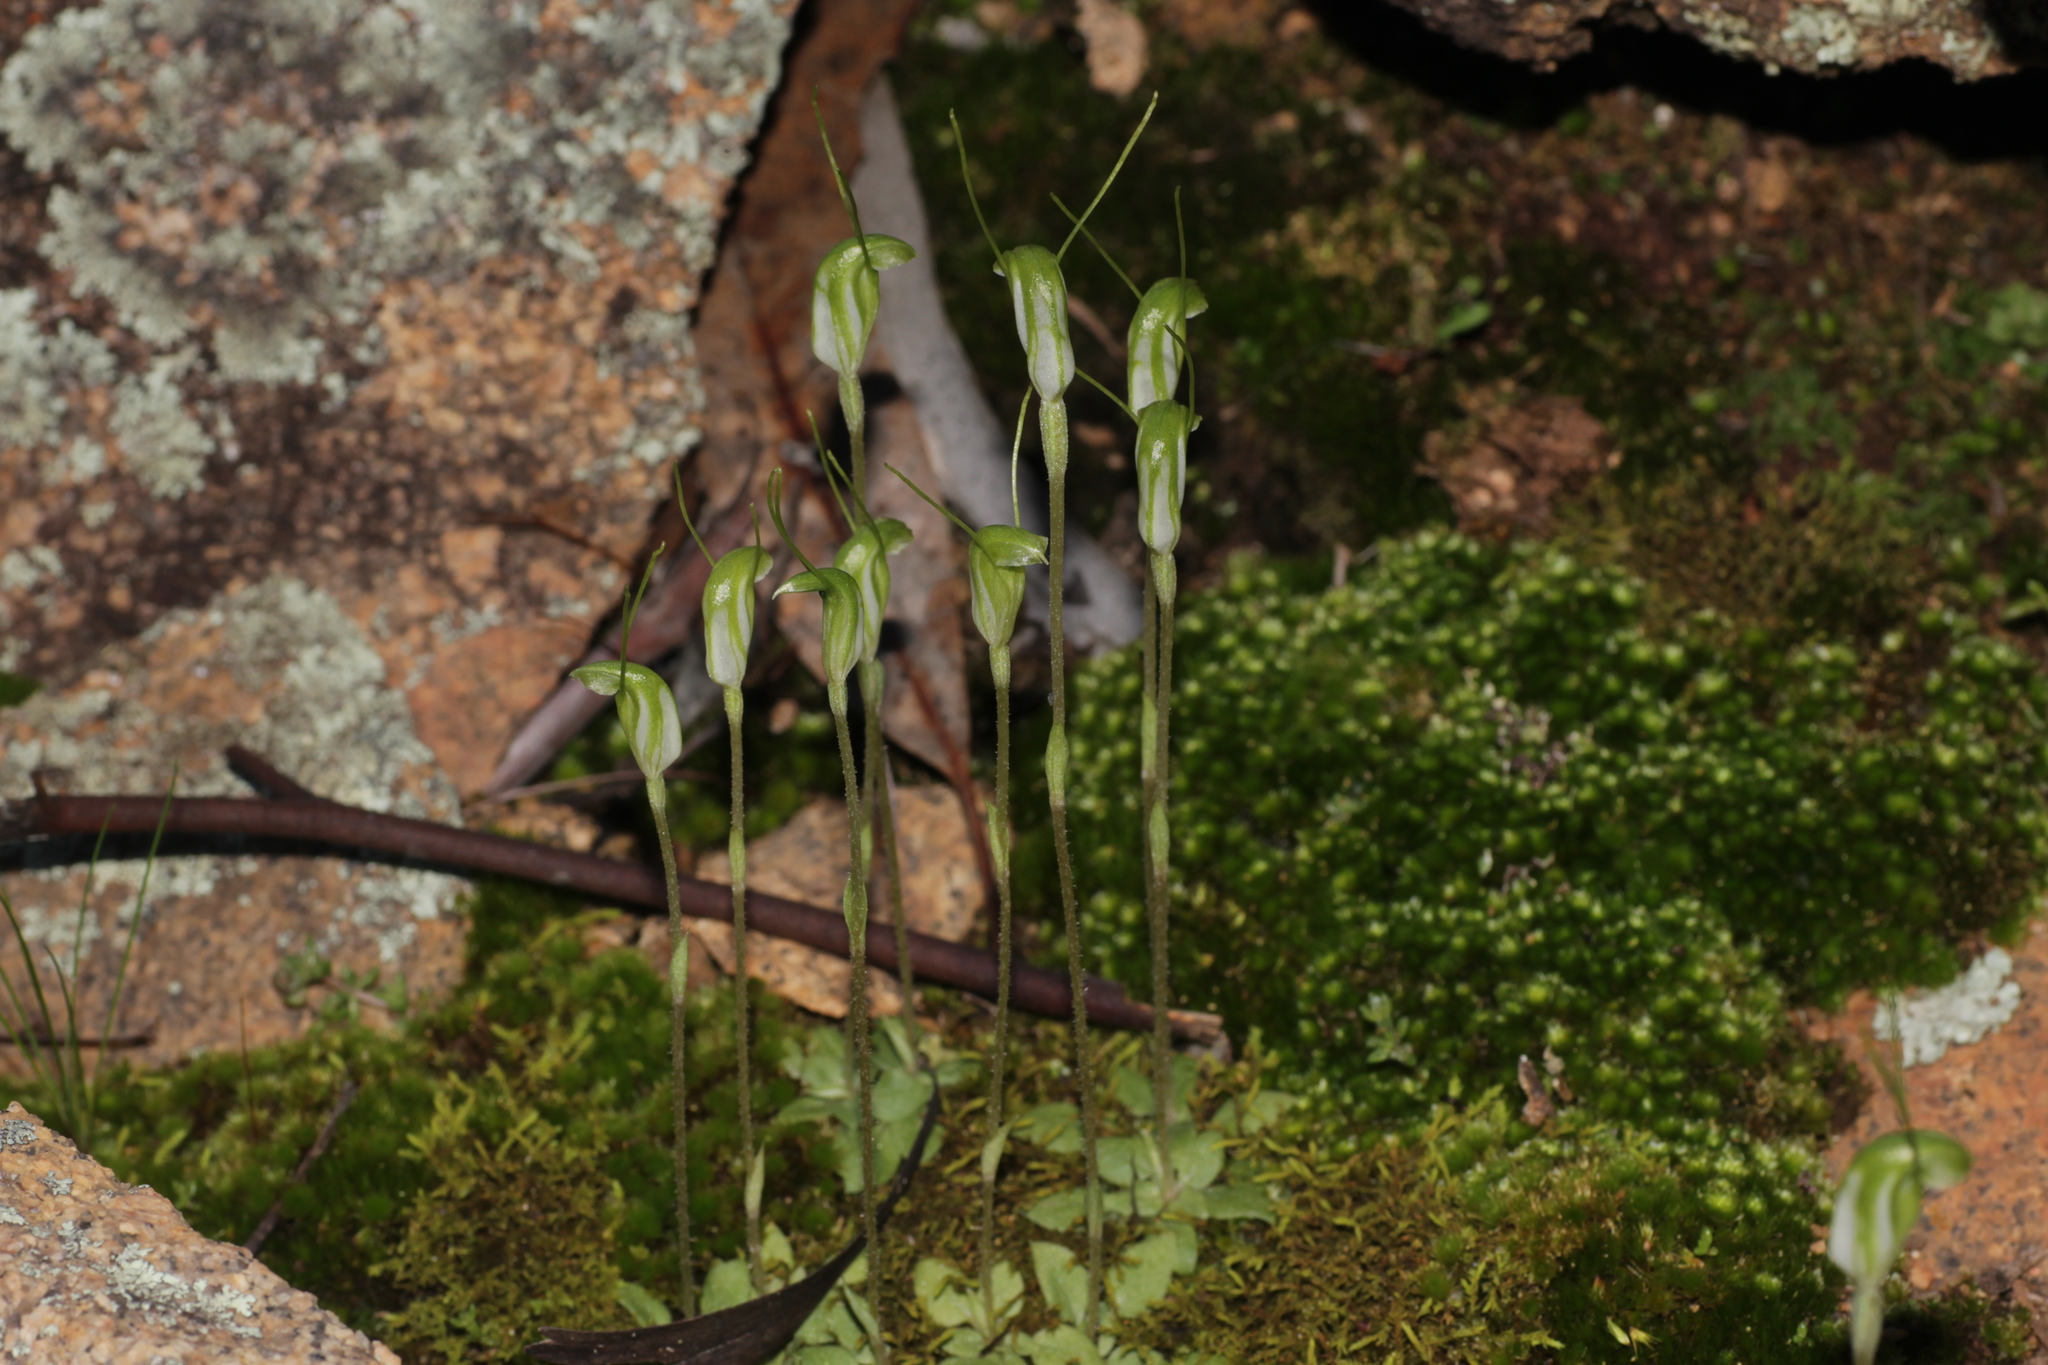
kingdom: Plantae
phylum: Tracheophyta
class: Liliopsida
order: Asparagales
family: Orchidaceae
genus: Pterostylis
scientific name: Pterostylis setulosa
